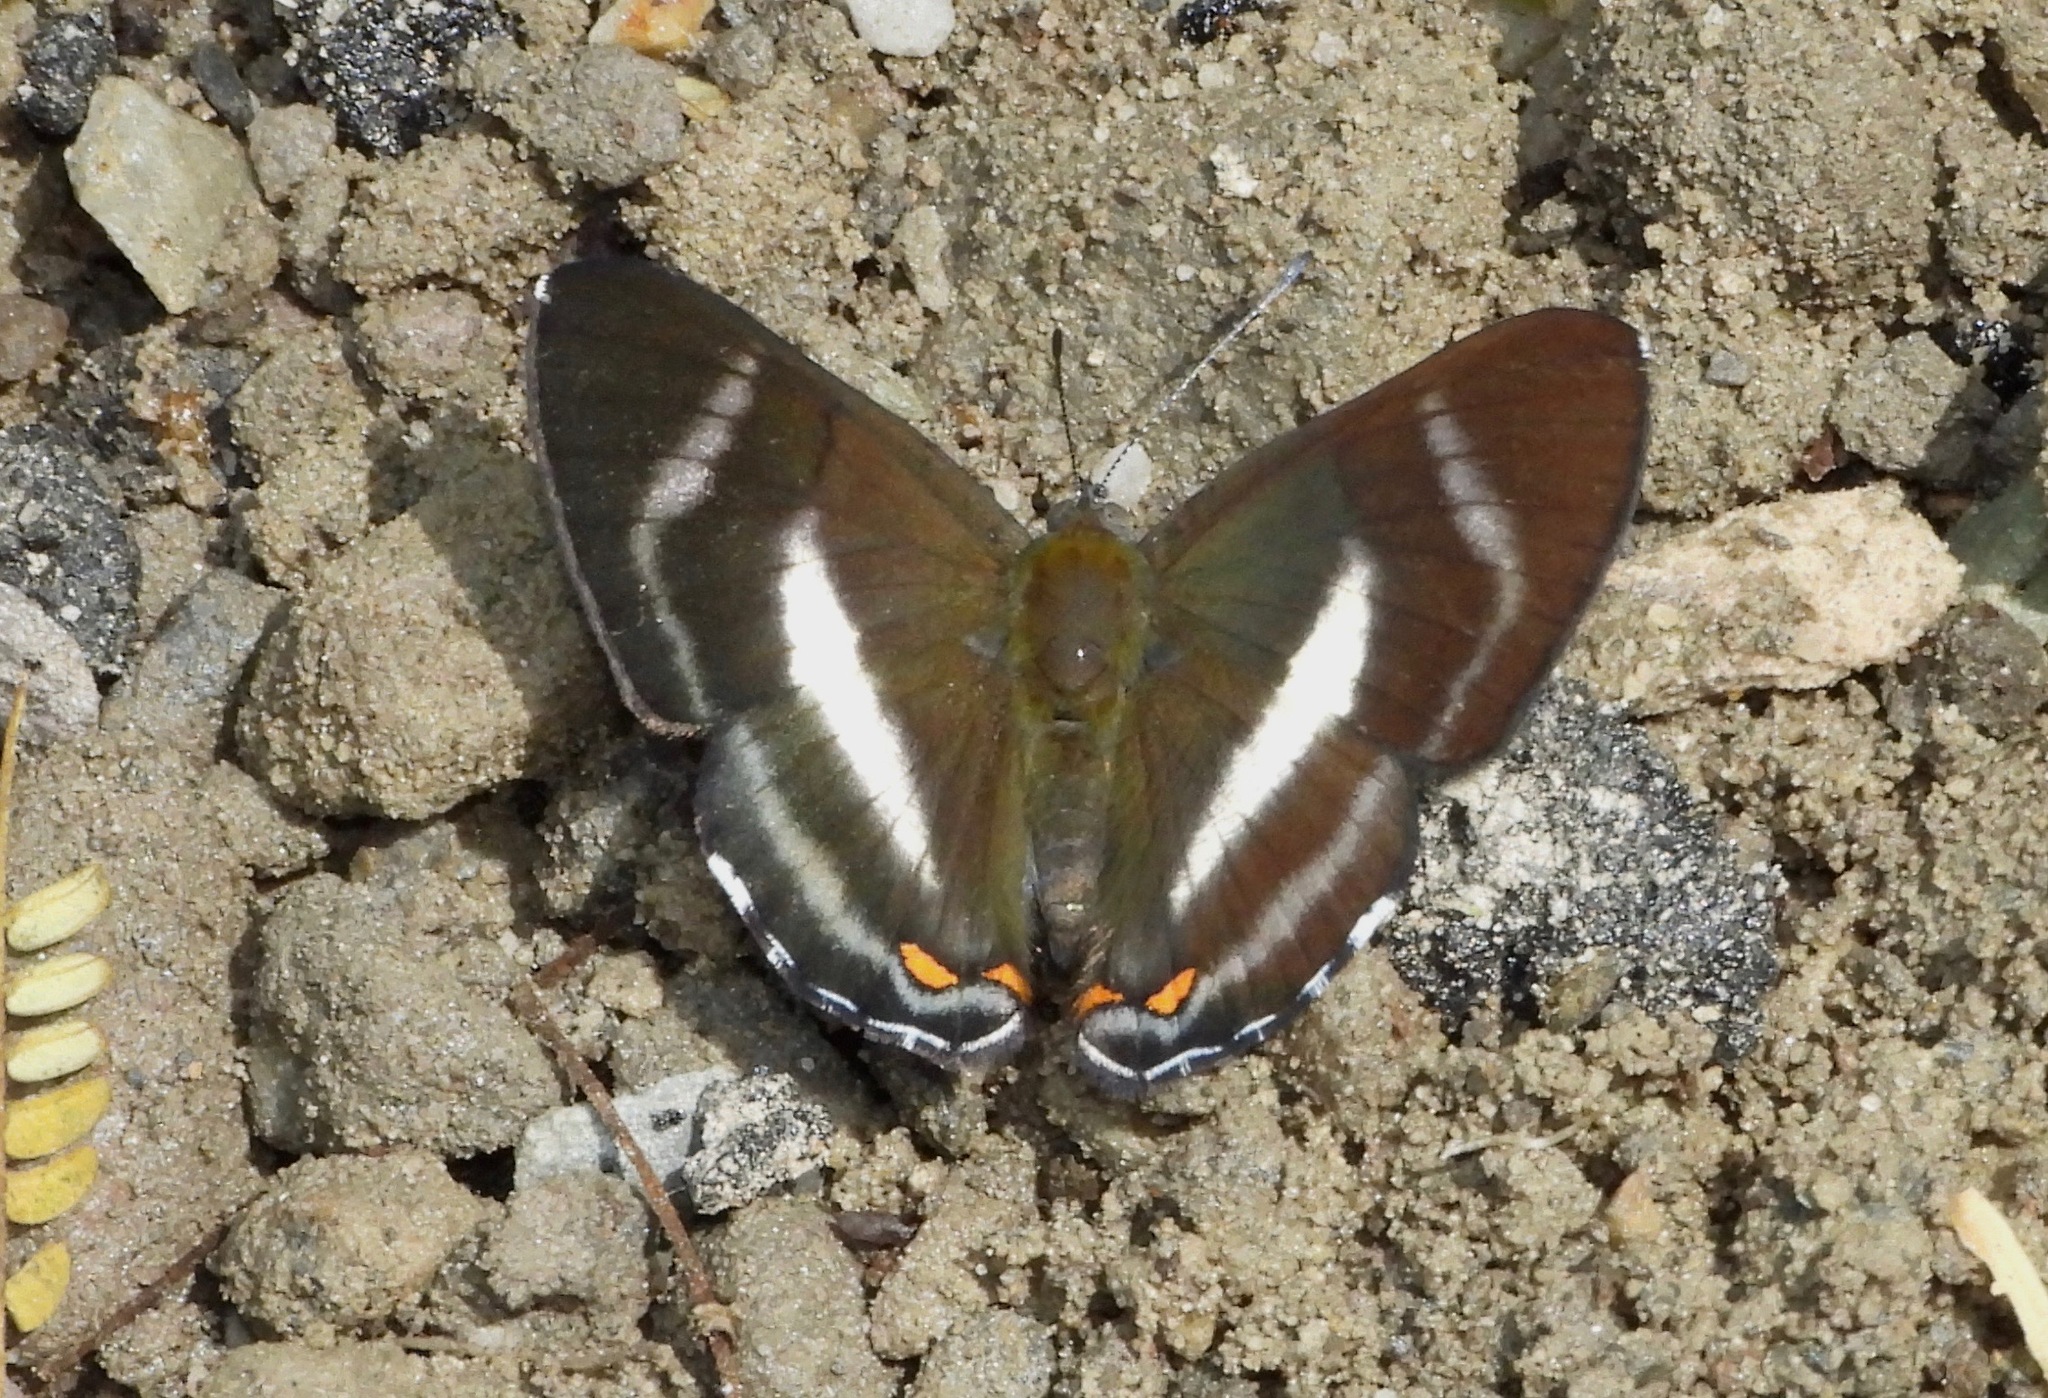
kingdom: Animalia
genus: Siseme
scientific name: Siseme pallas
